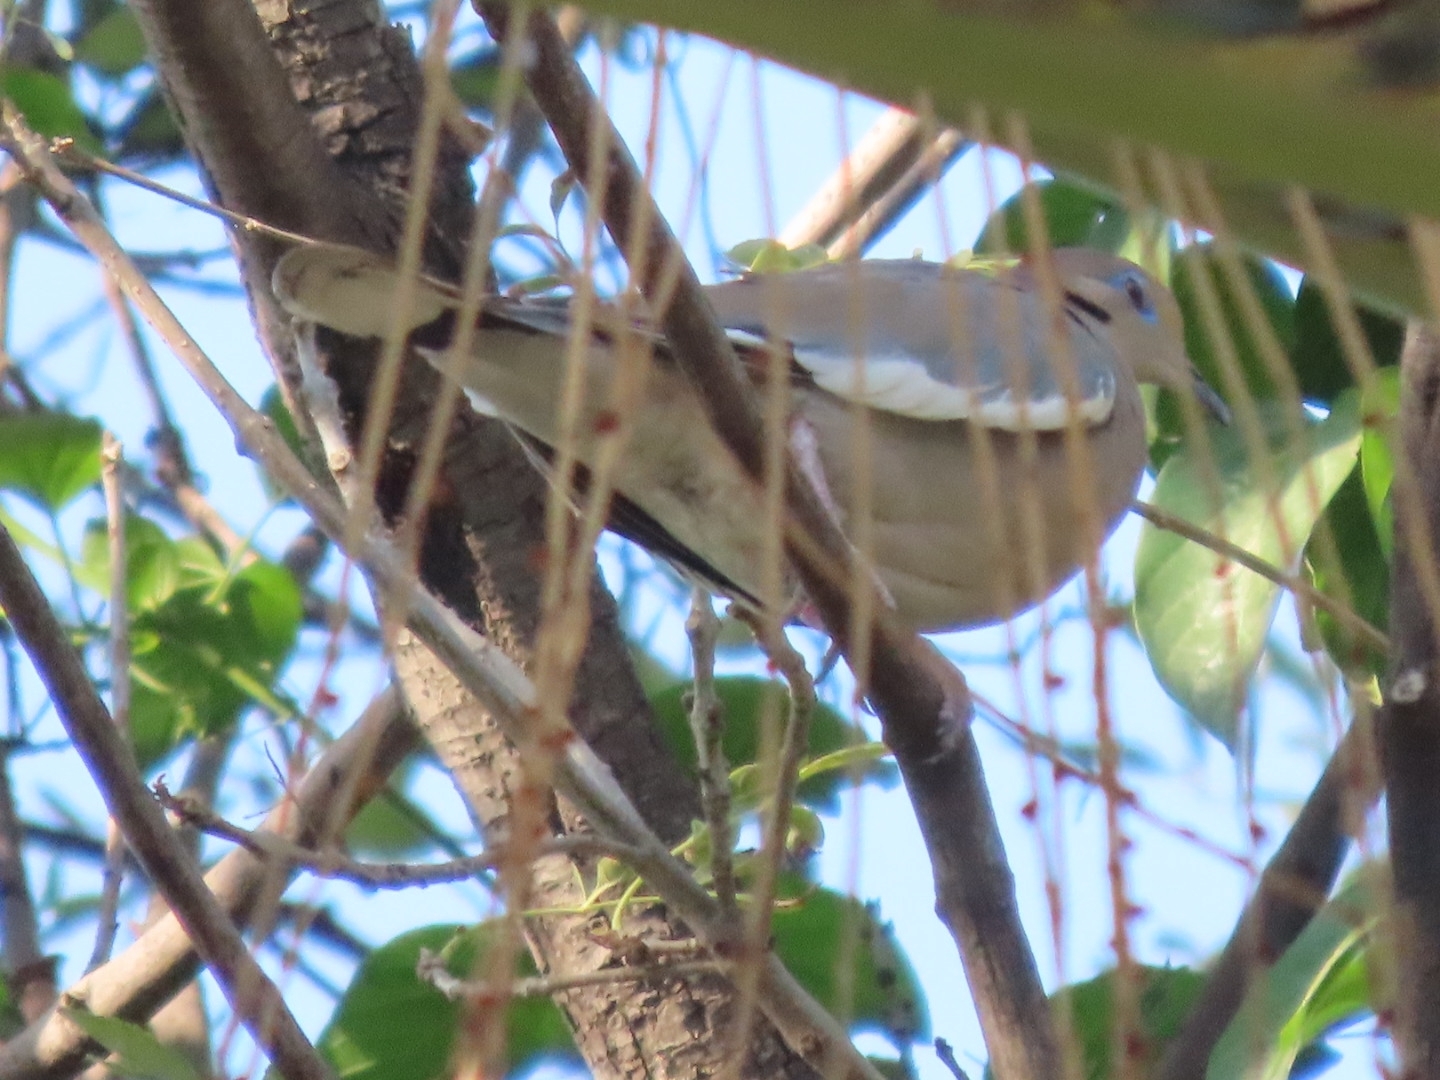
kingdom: Animalia
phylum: Chordata
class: Aves
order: Columbiformes
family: Columbidae
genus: Zenaida
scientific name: Zenaida asiatica
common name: White-winged dove
